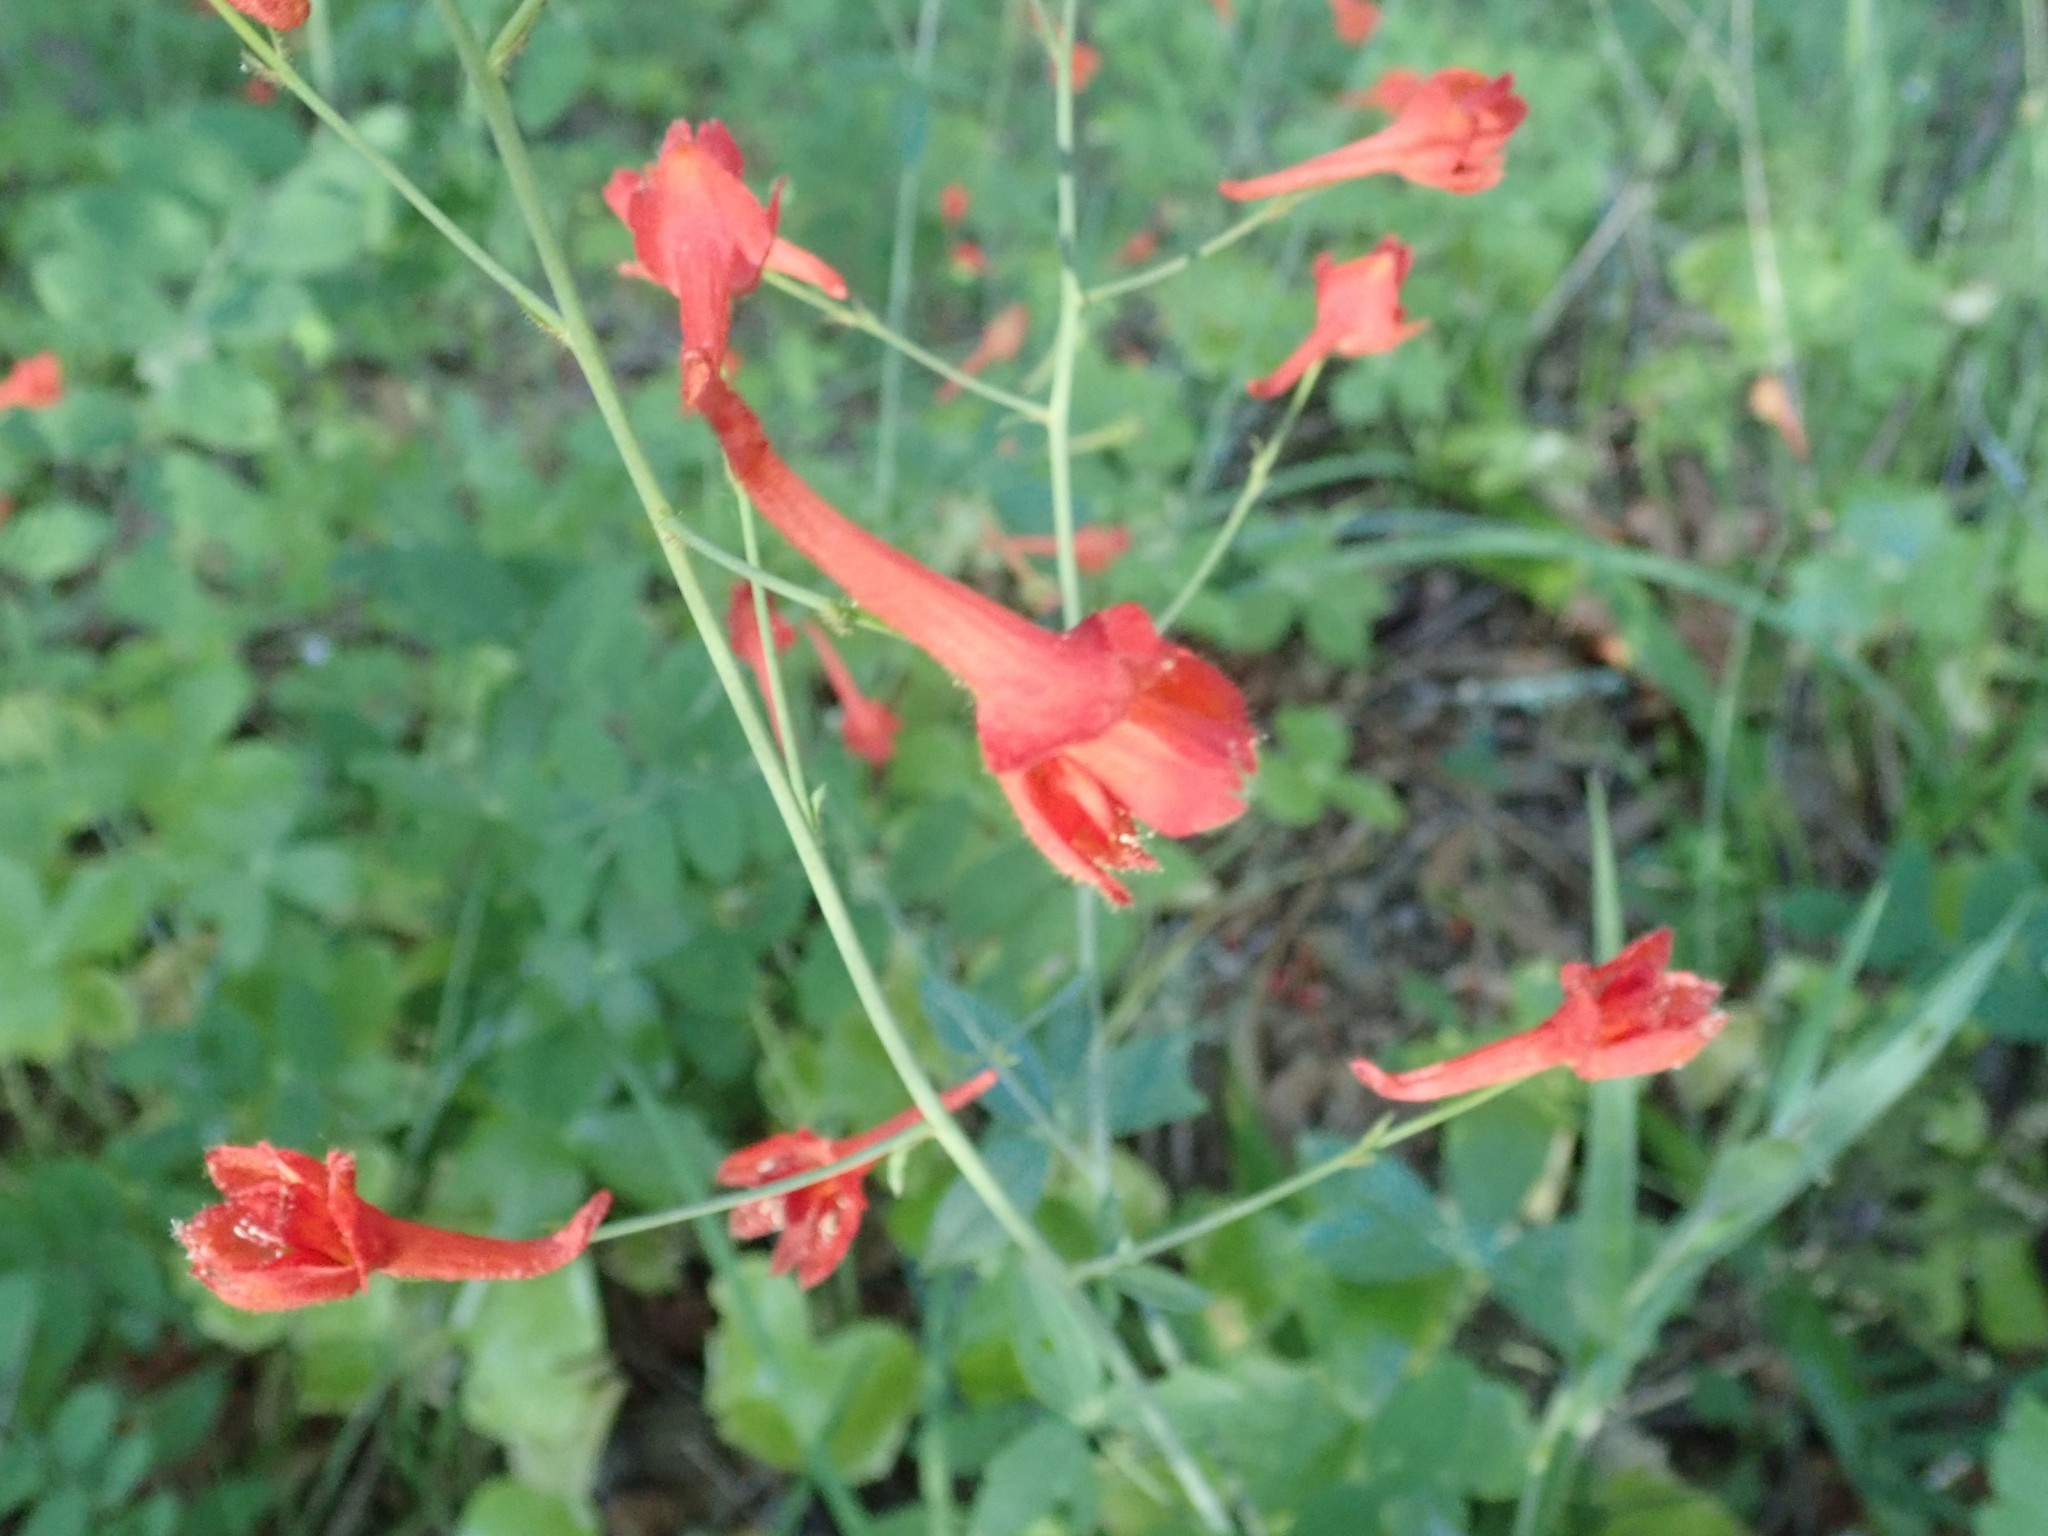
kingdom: Plantae
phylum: Tracheophyta
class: Magnoliopsida
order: Ranunculales
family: Ranunculaceae
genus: Delphinium
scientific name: Delphinium nudicaule
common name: Red larkspur
